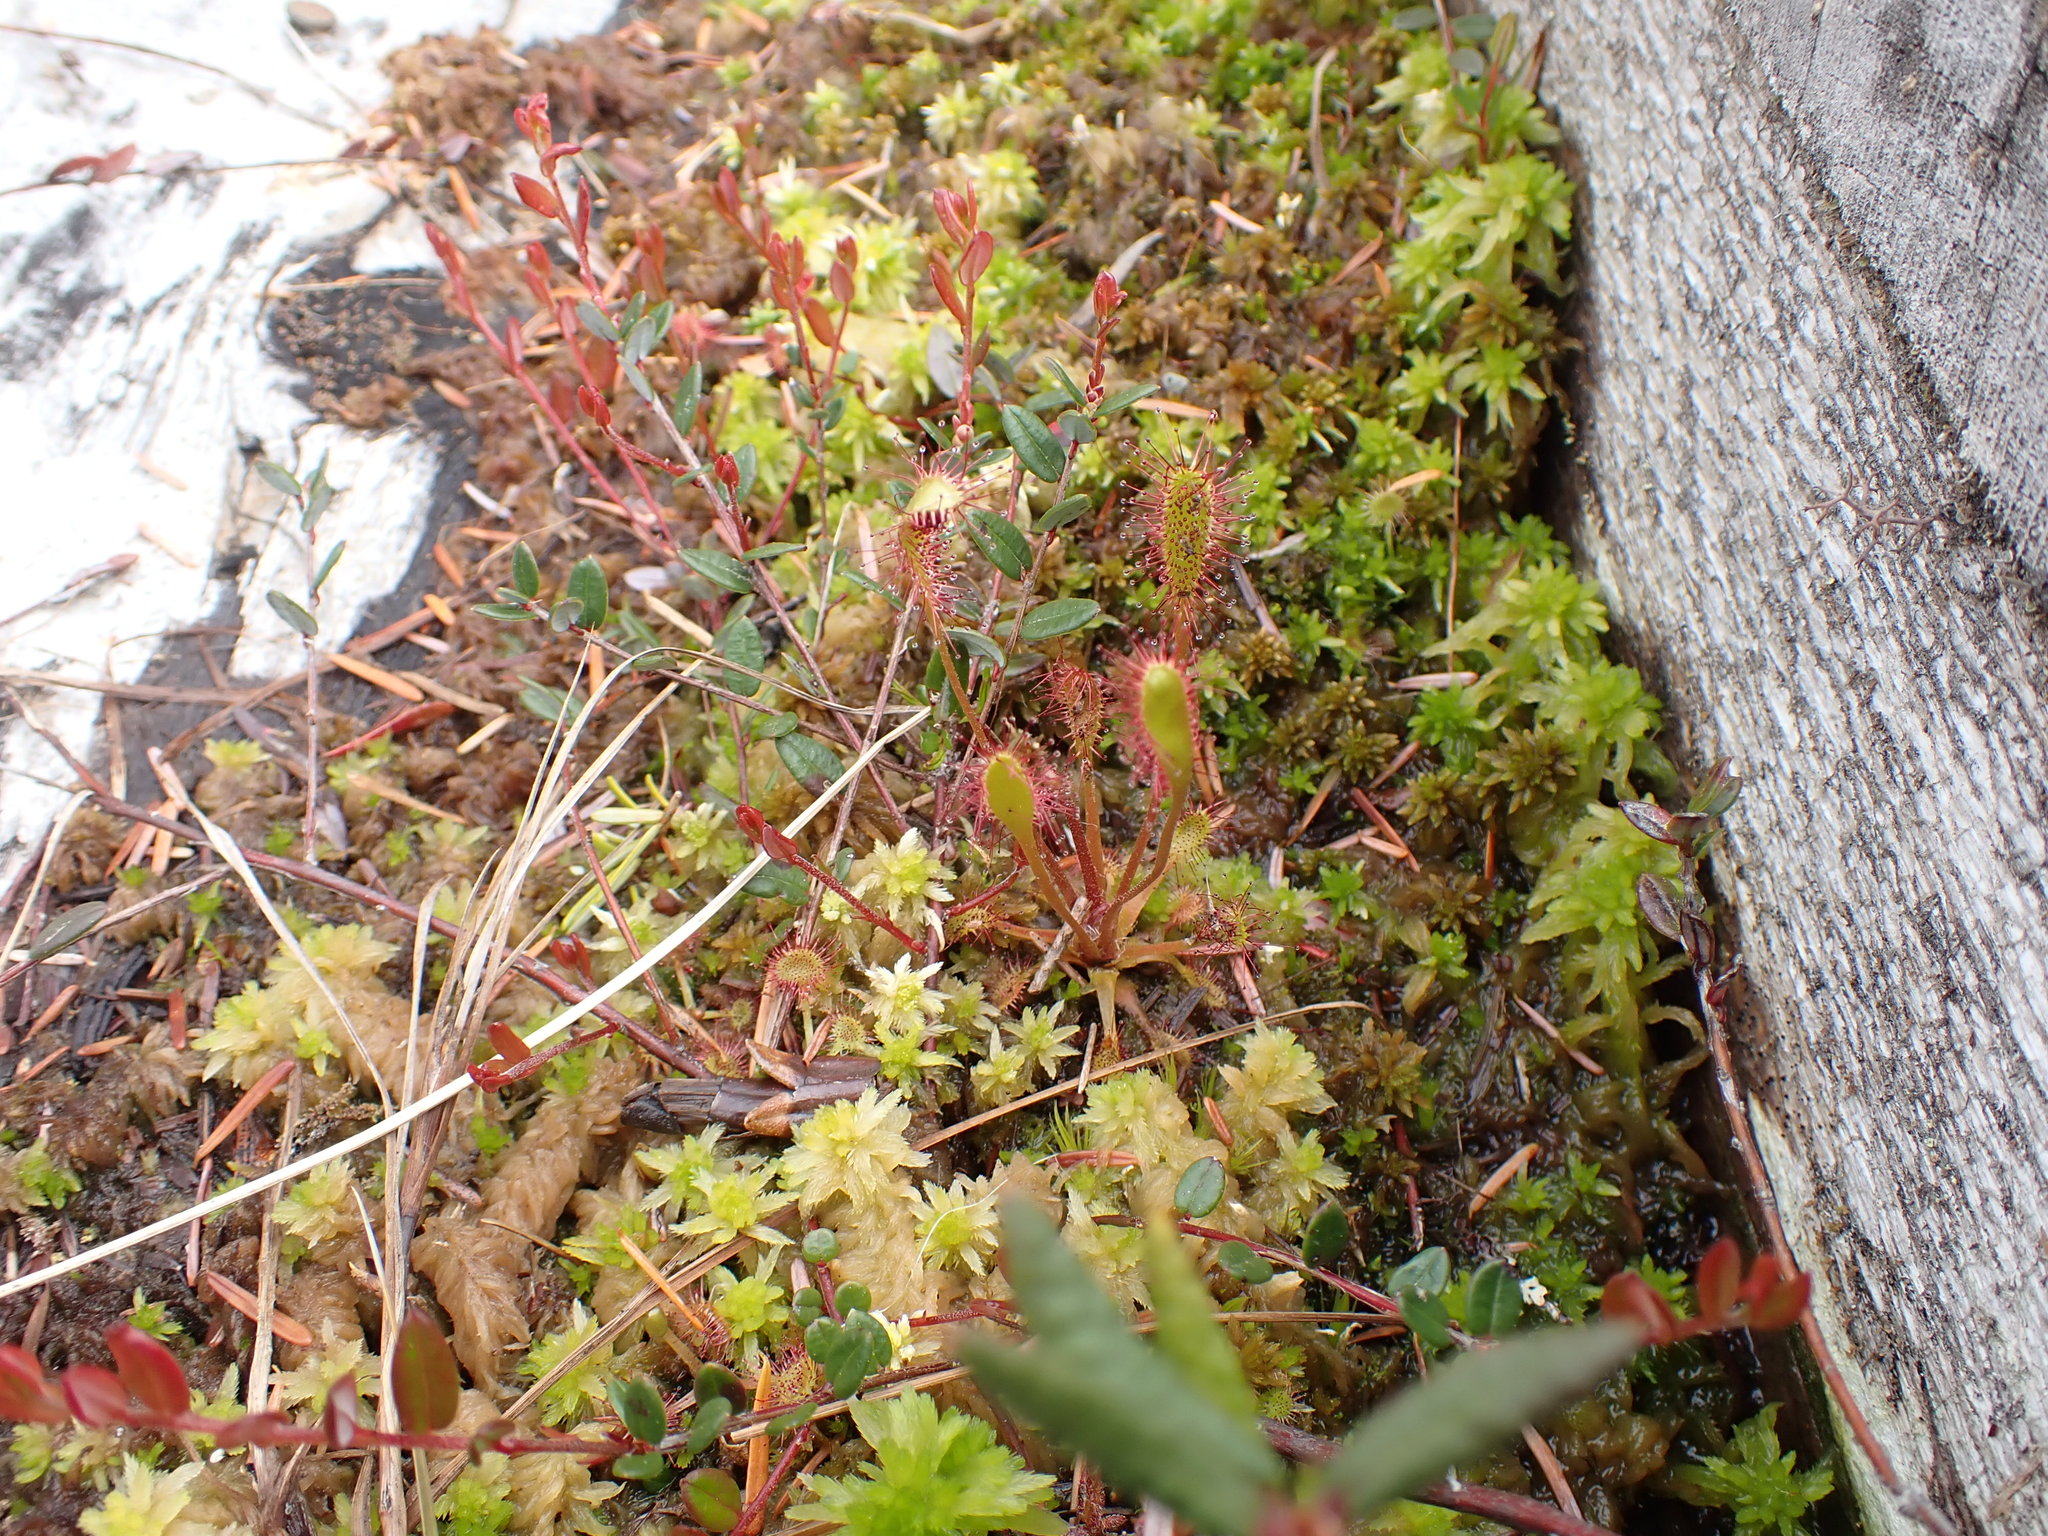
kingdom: Plantae
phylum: Tracheophyta
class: Magnoliopsida
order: Caryophyllales
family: Droseraceae
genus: Drosera
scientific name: Drosera anglica
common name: Great sundew
